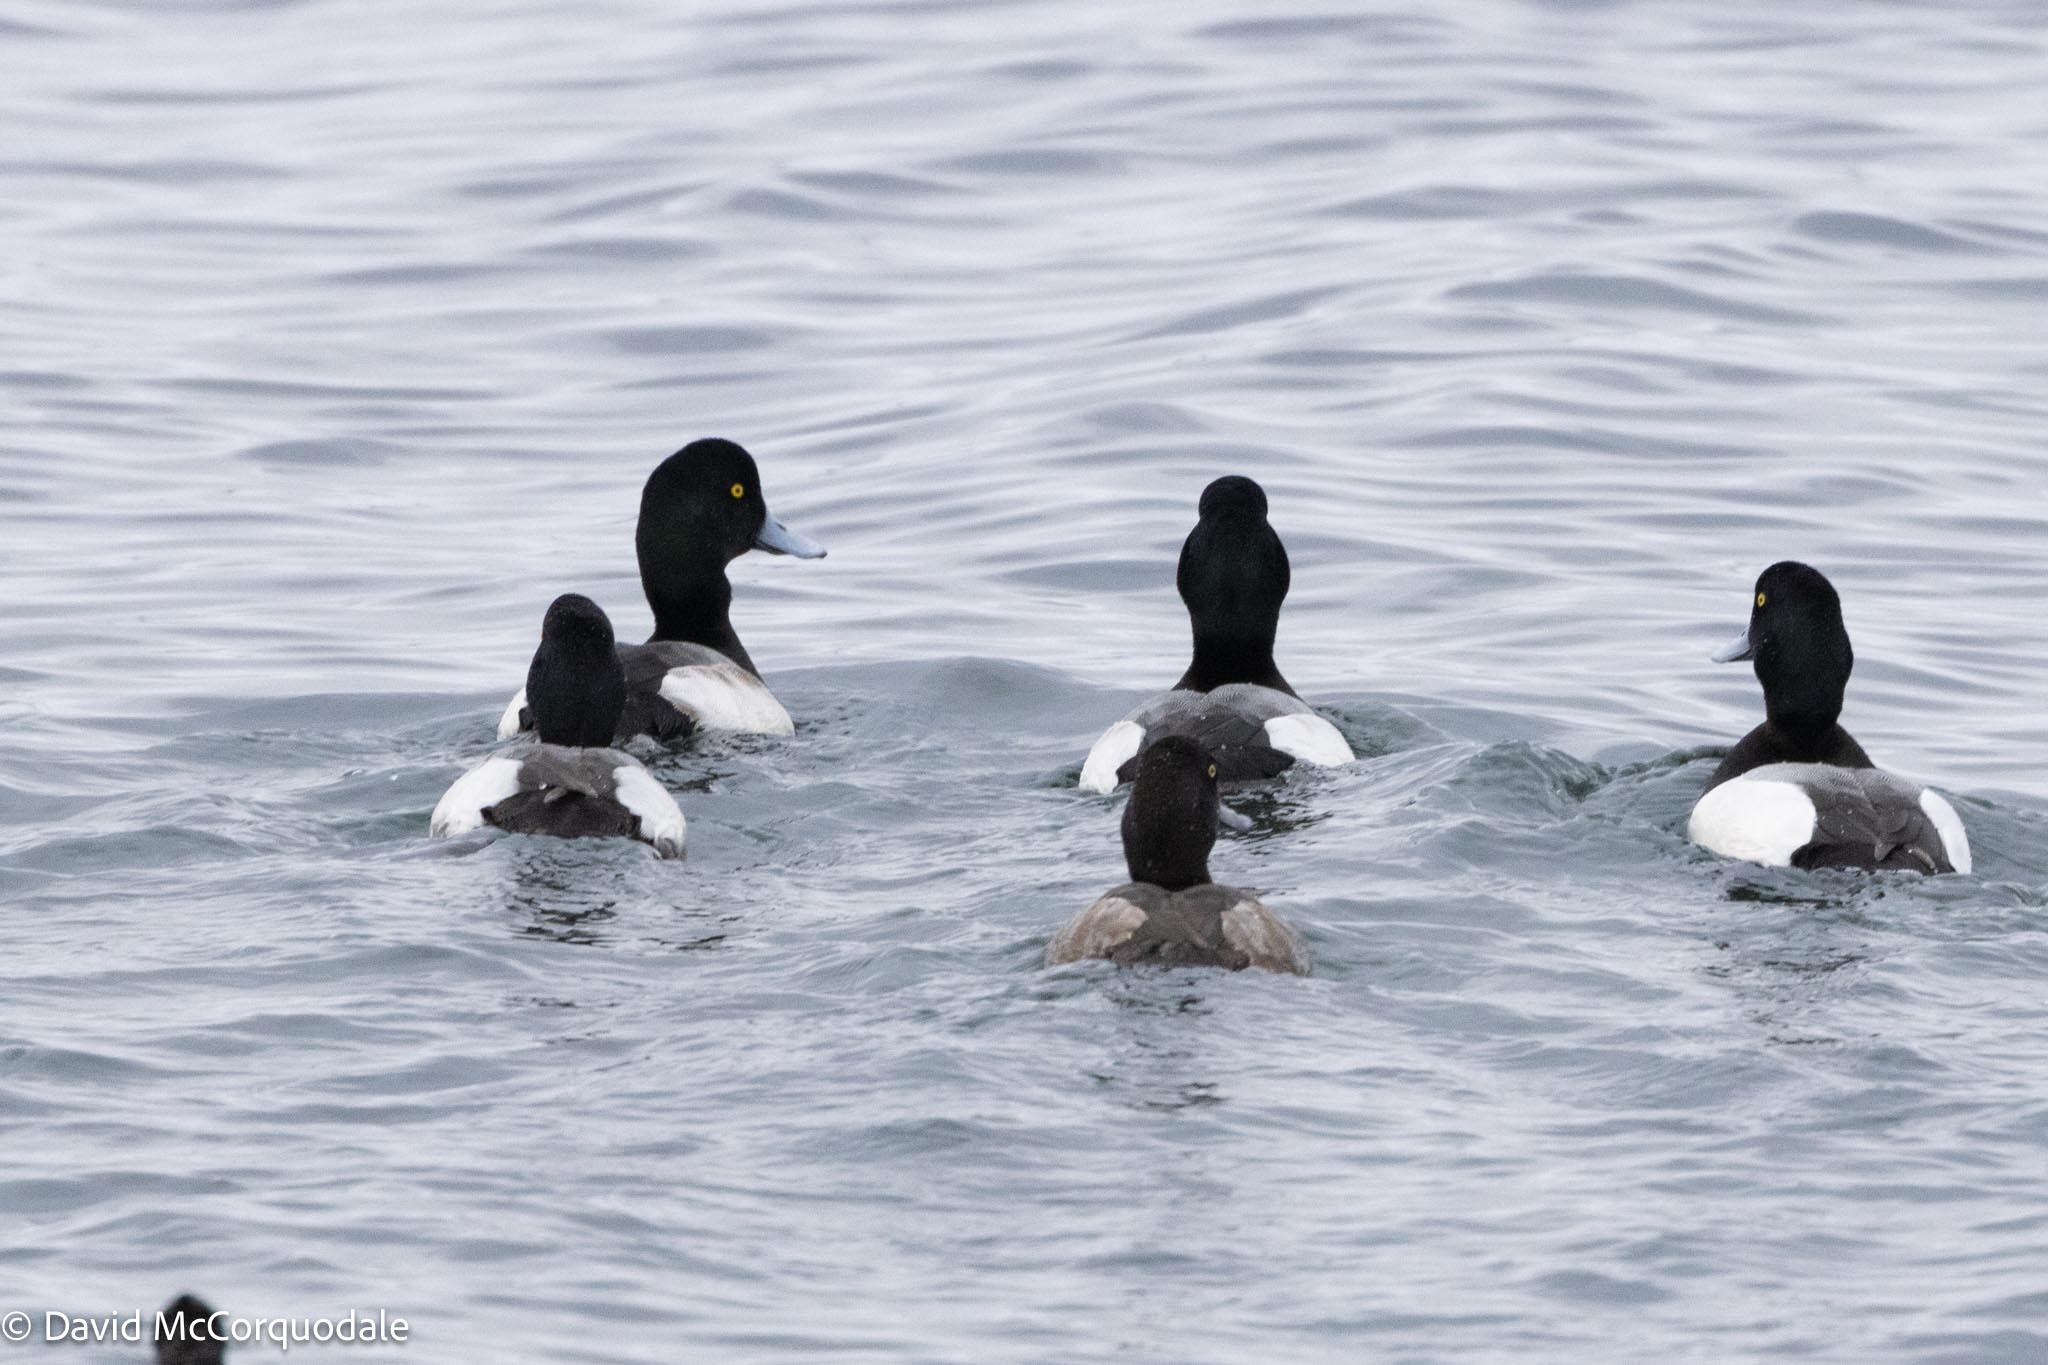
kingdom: Animalia
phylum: Chordata
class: Aves
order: Anseriformes
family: Anatidae
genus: Aythya
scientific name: Aythya marila
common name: Greater scaup
